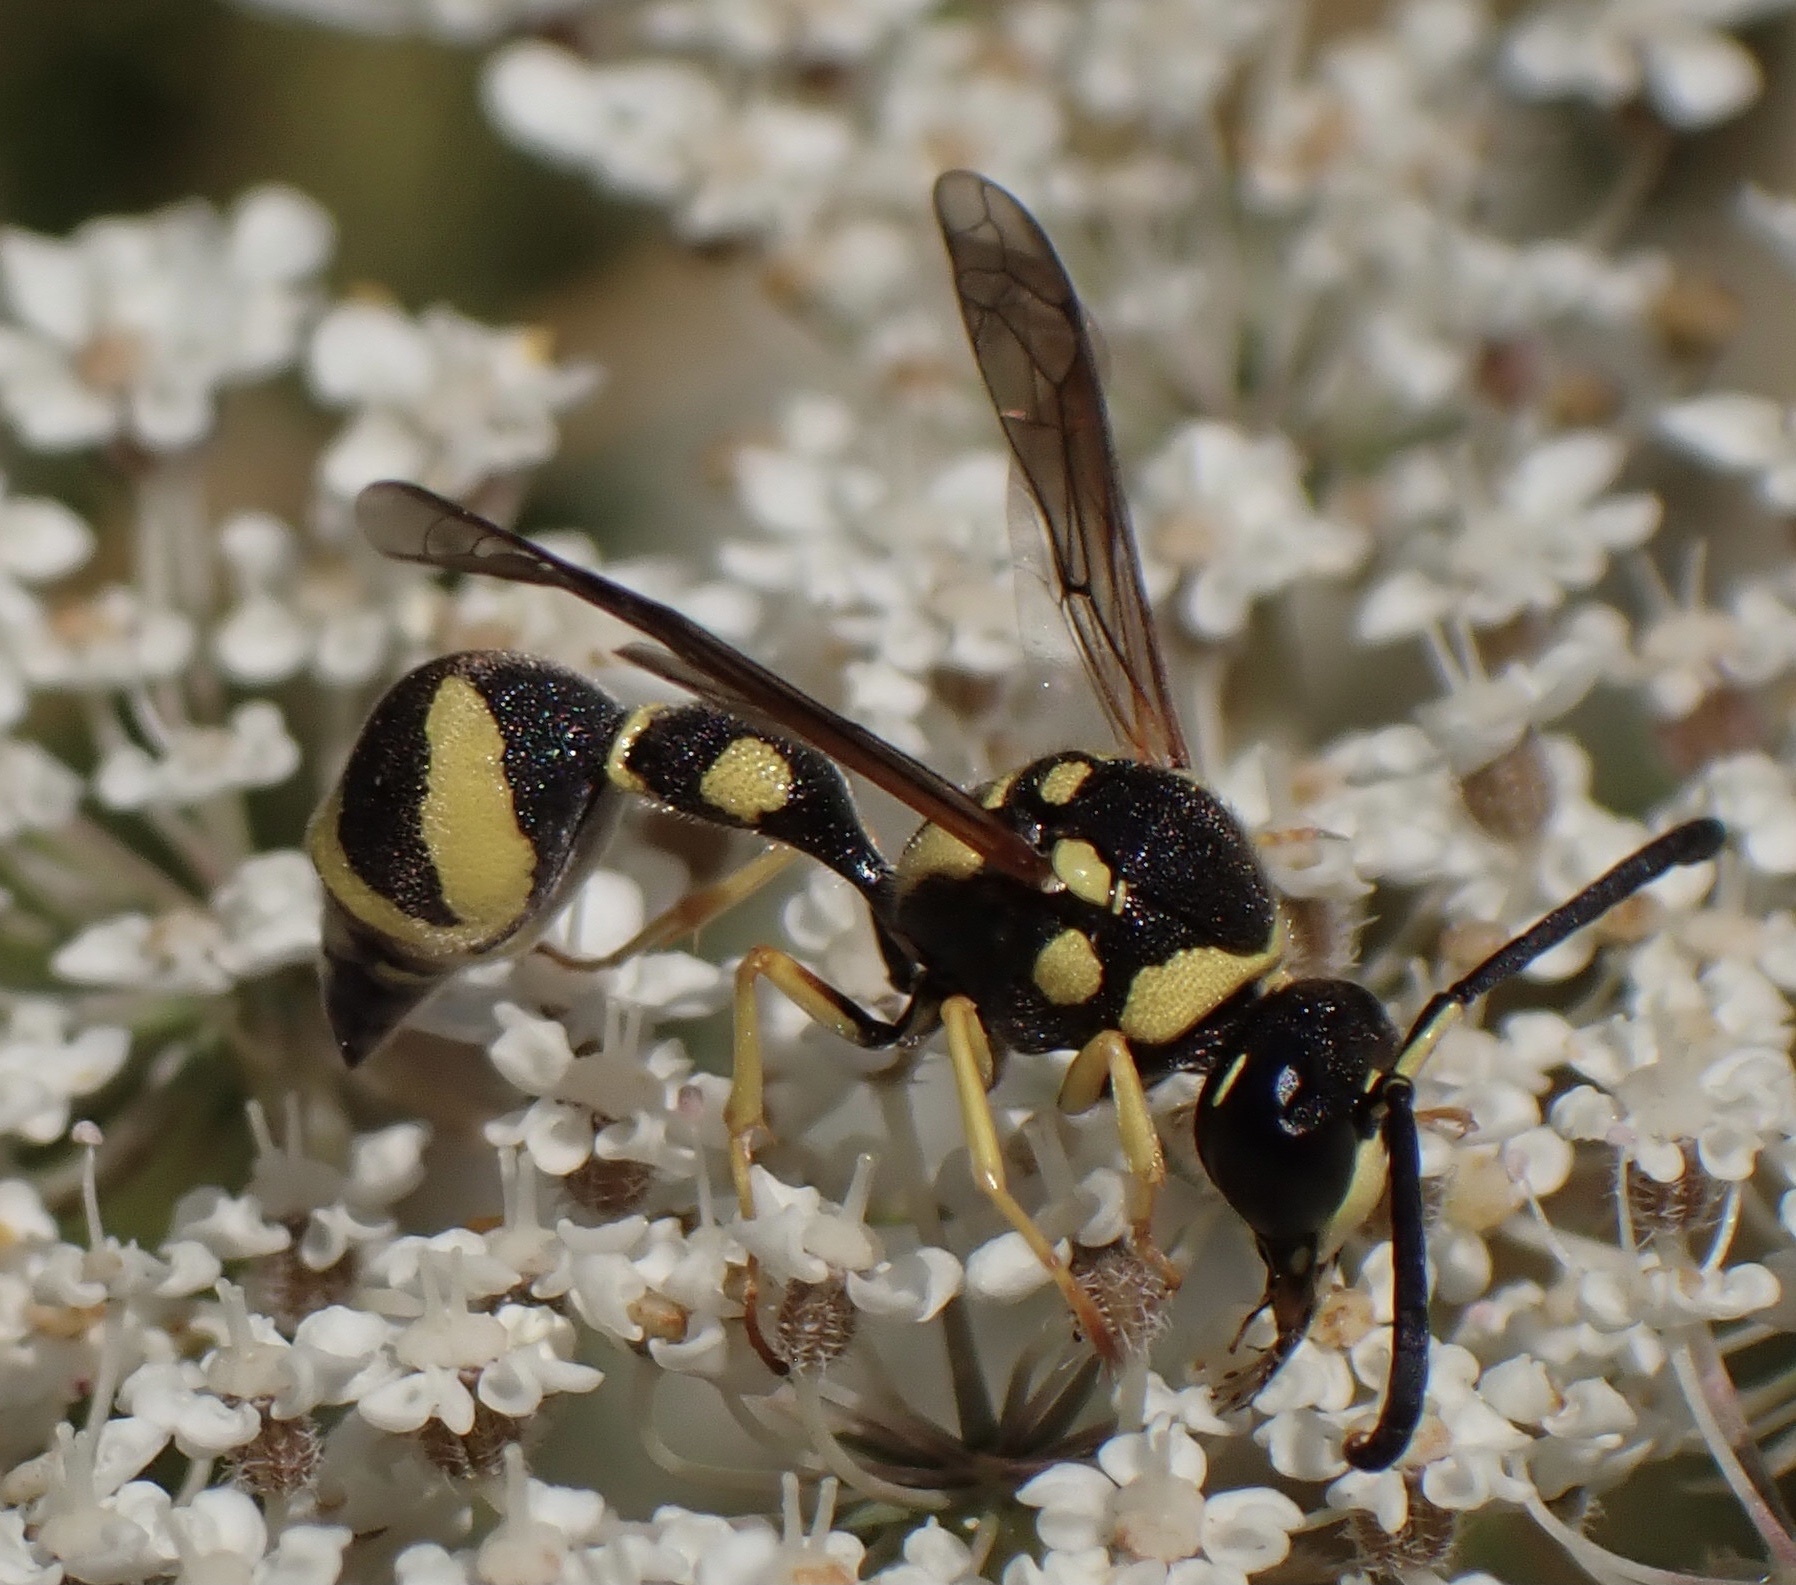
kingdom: Animalia
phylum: Arthropoda
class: Insecta
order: Hymenoptera
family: Vespidae
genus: Eumenes
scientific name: Eumenes pomiformis
